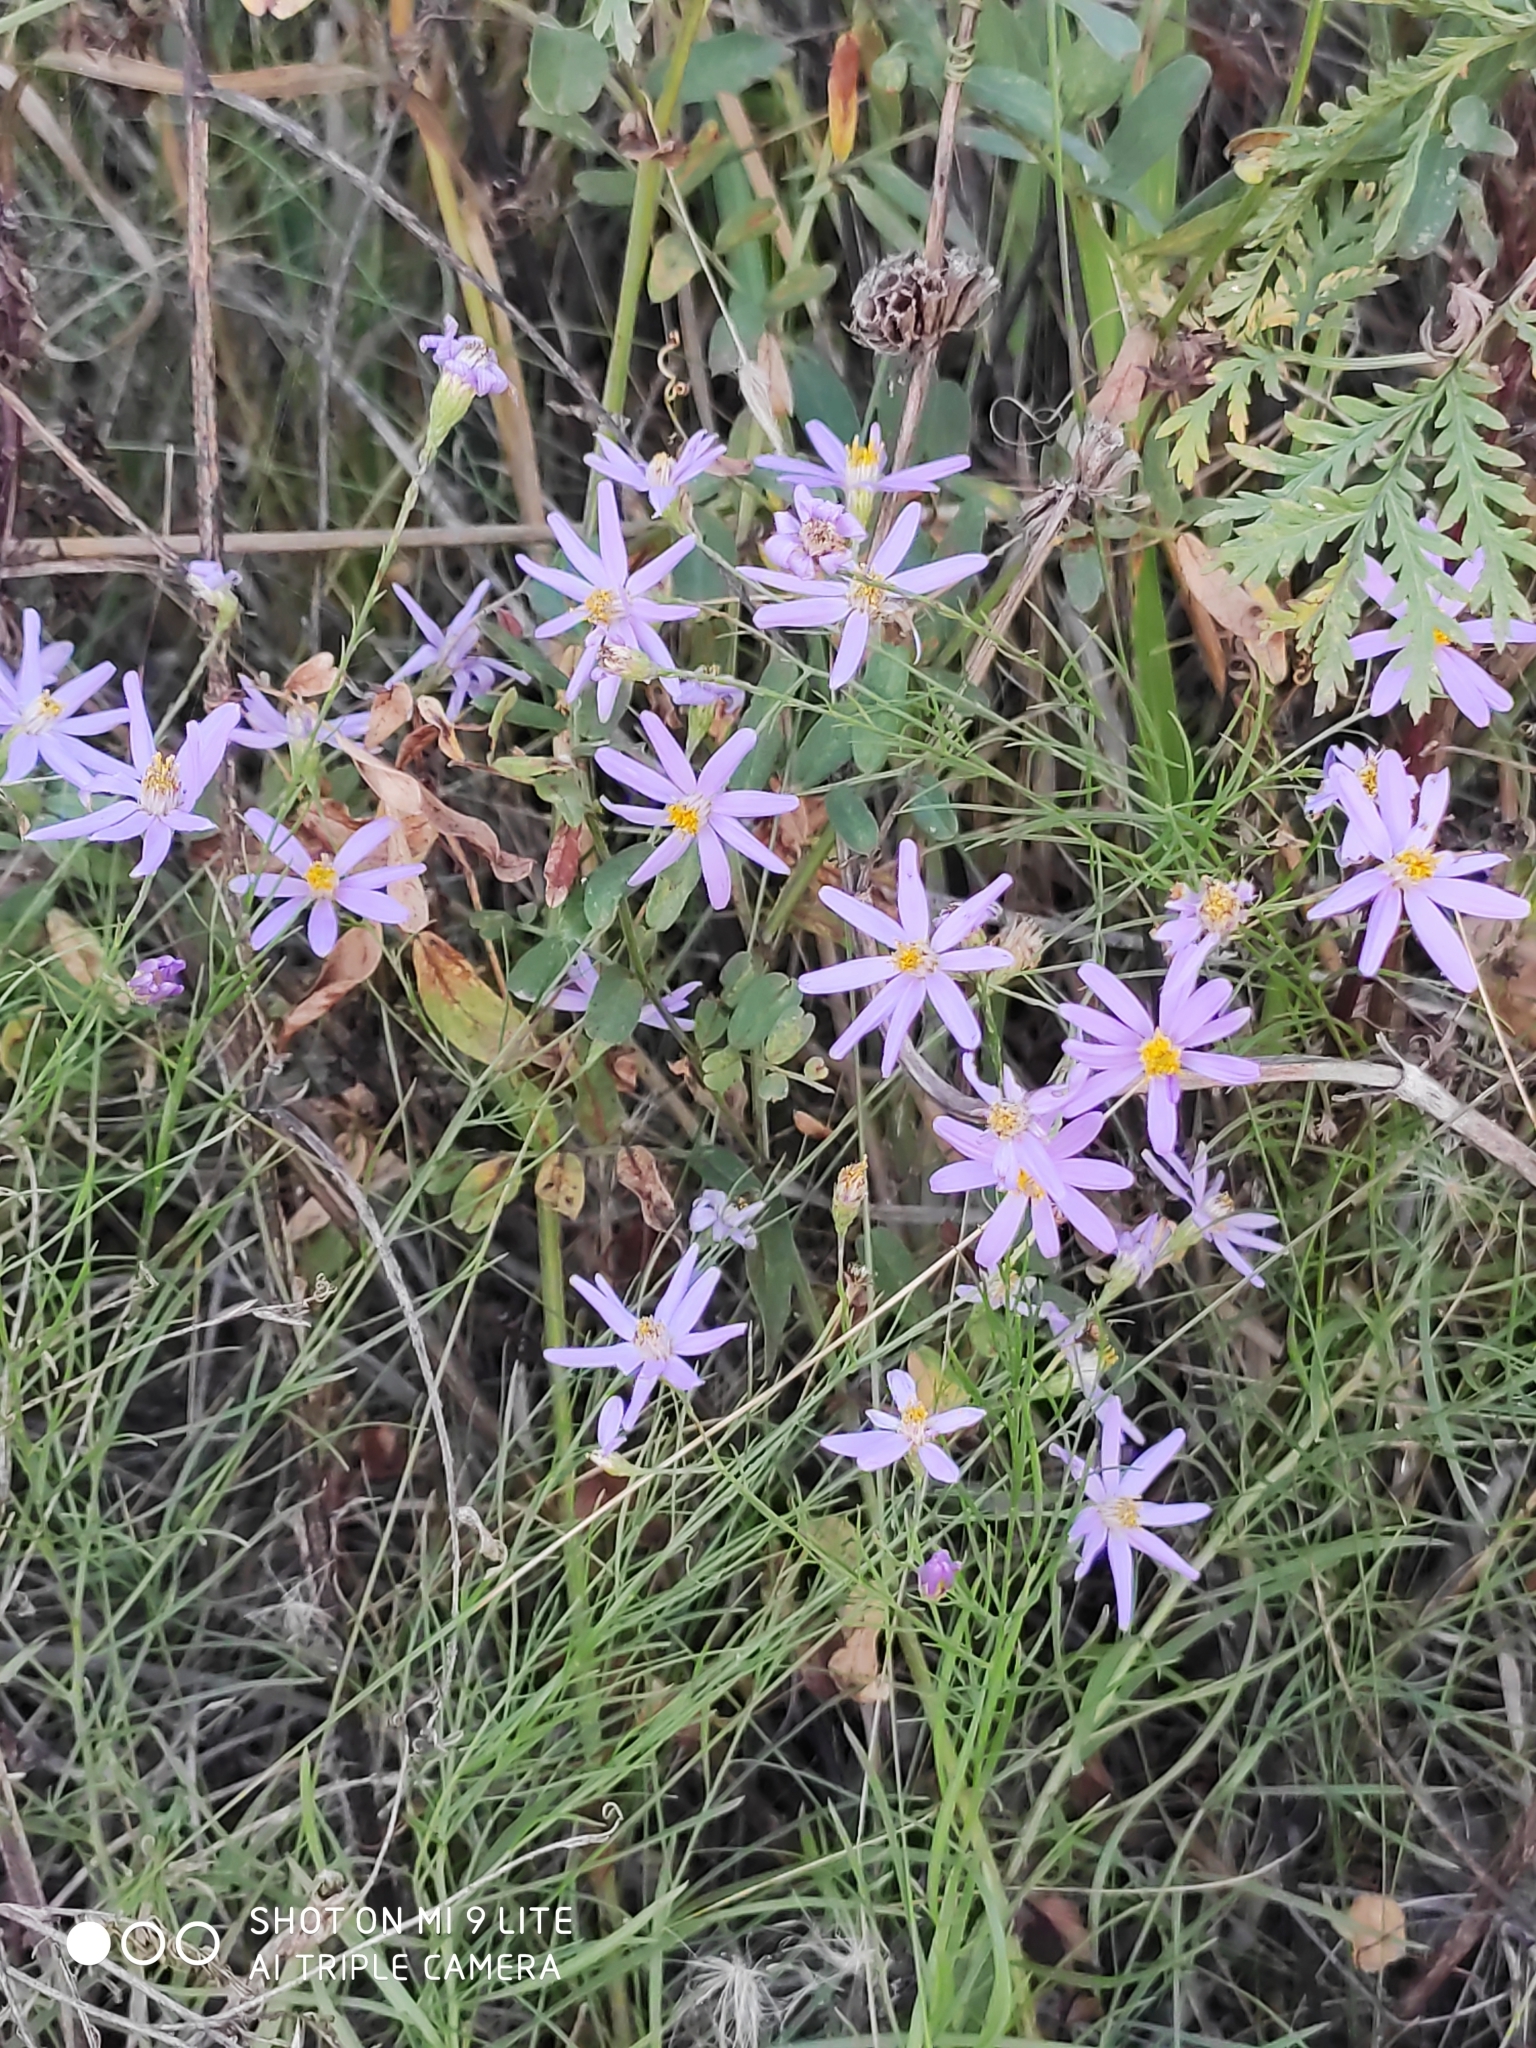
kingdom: Plantae
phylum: Tracheophyta
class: Magnoliopsida
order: Asterales
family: Asteraceae
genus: Galatella
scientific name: Galatella angustissima
